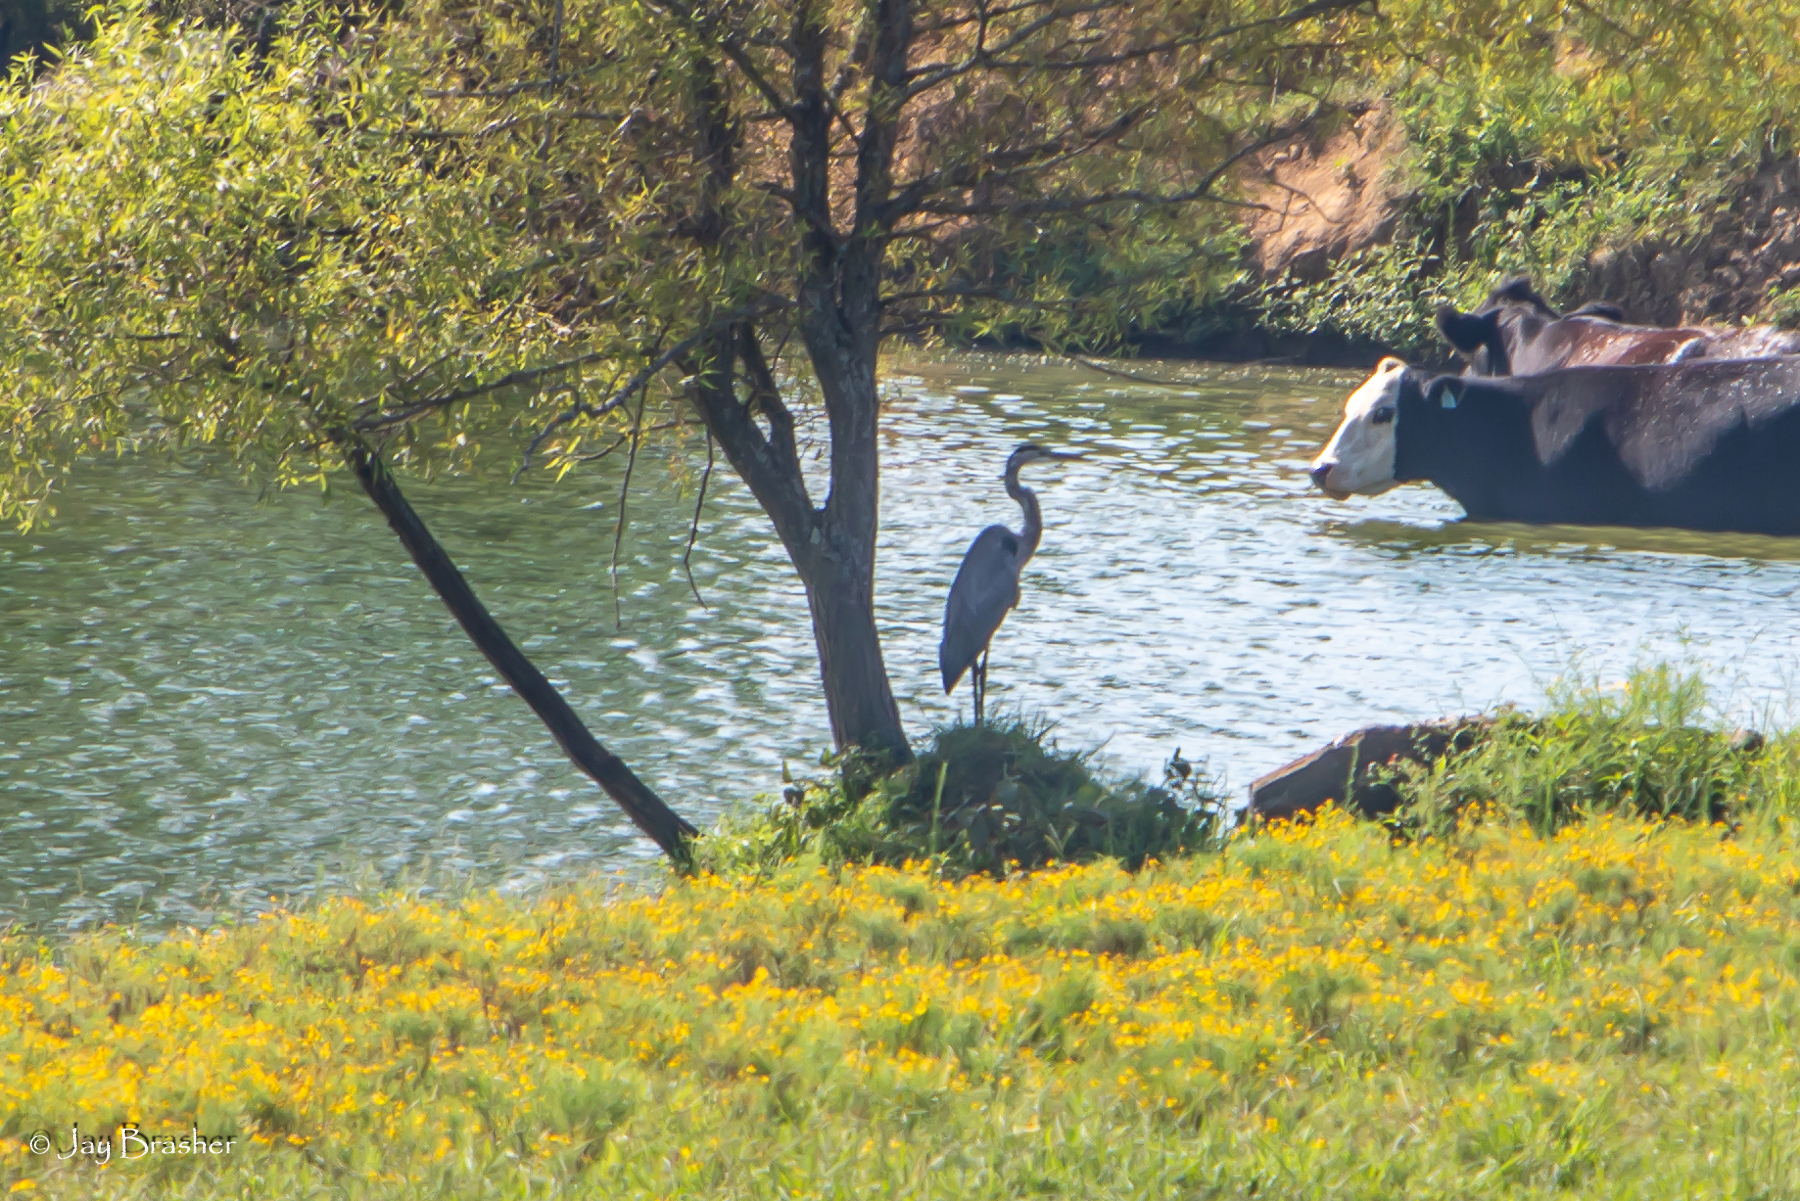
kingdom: Animalia
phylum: Chordata
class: Aves
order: Pelecaniformes
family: Ardeidae
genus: Ardea
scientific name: Ardea herodias
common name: Great blue heron
